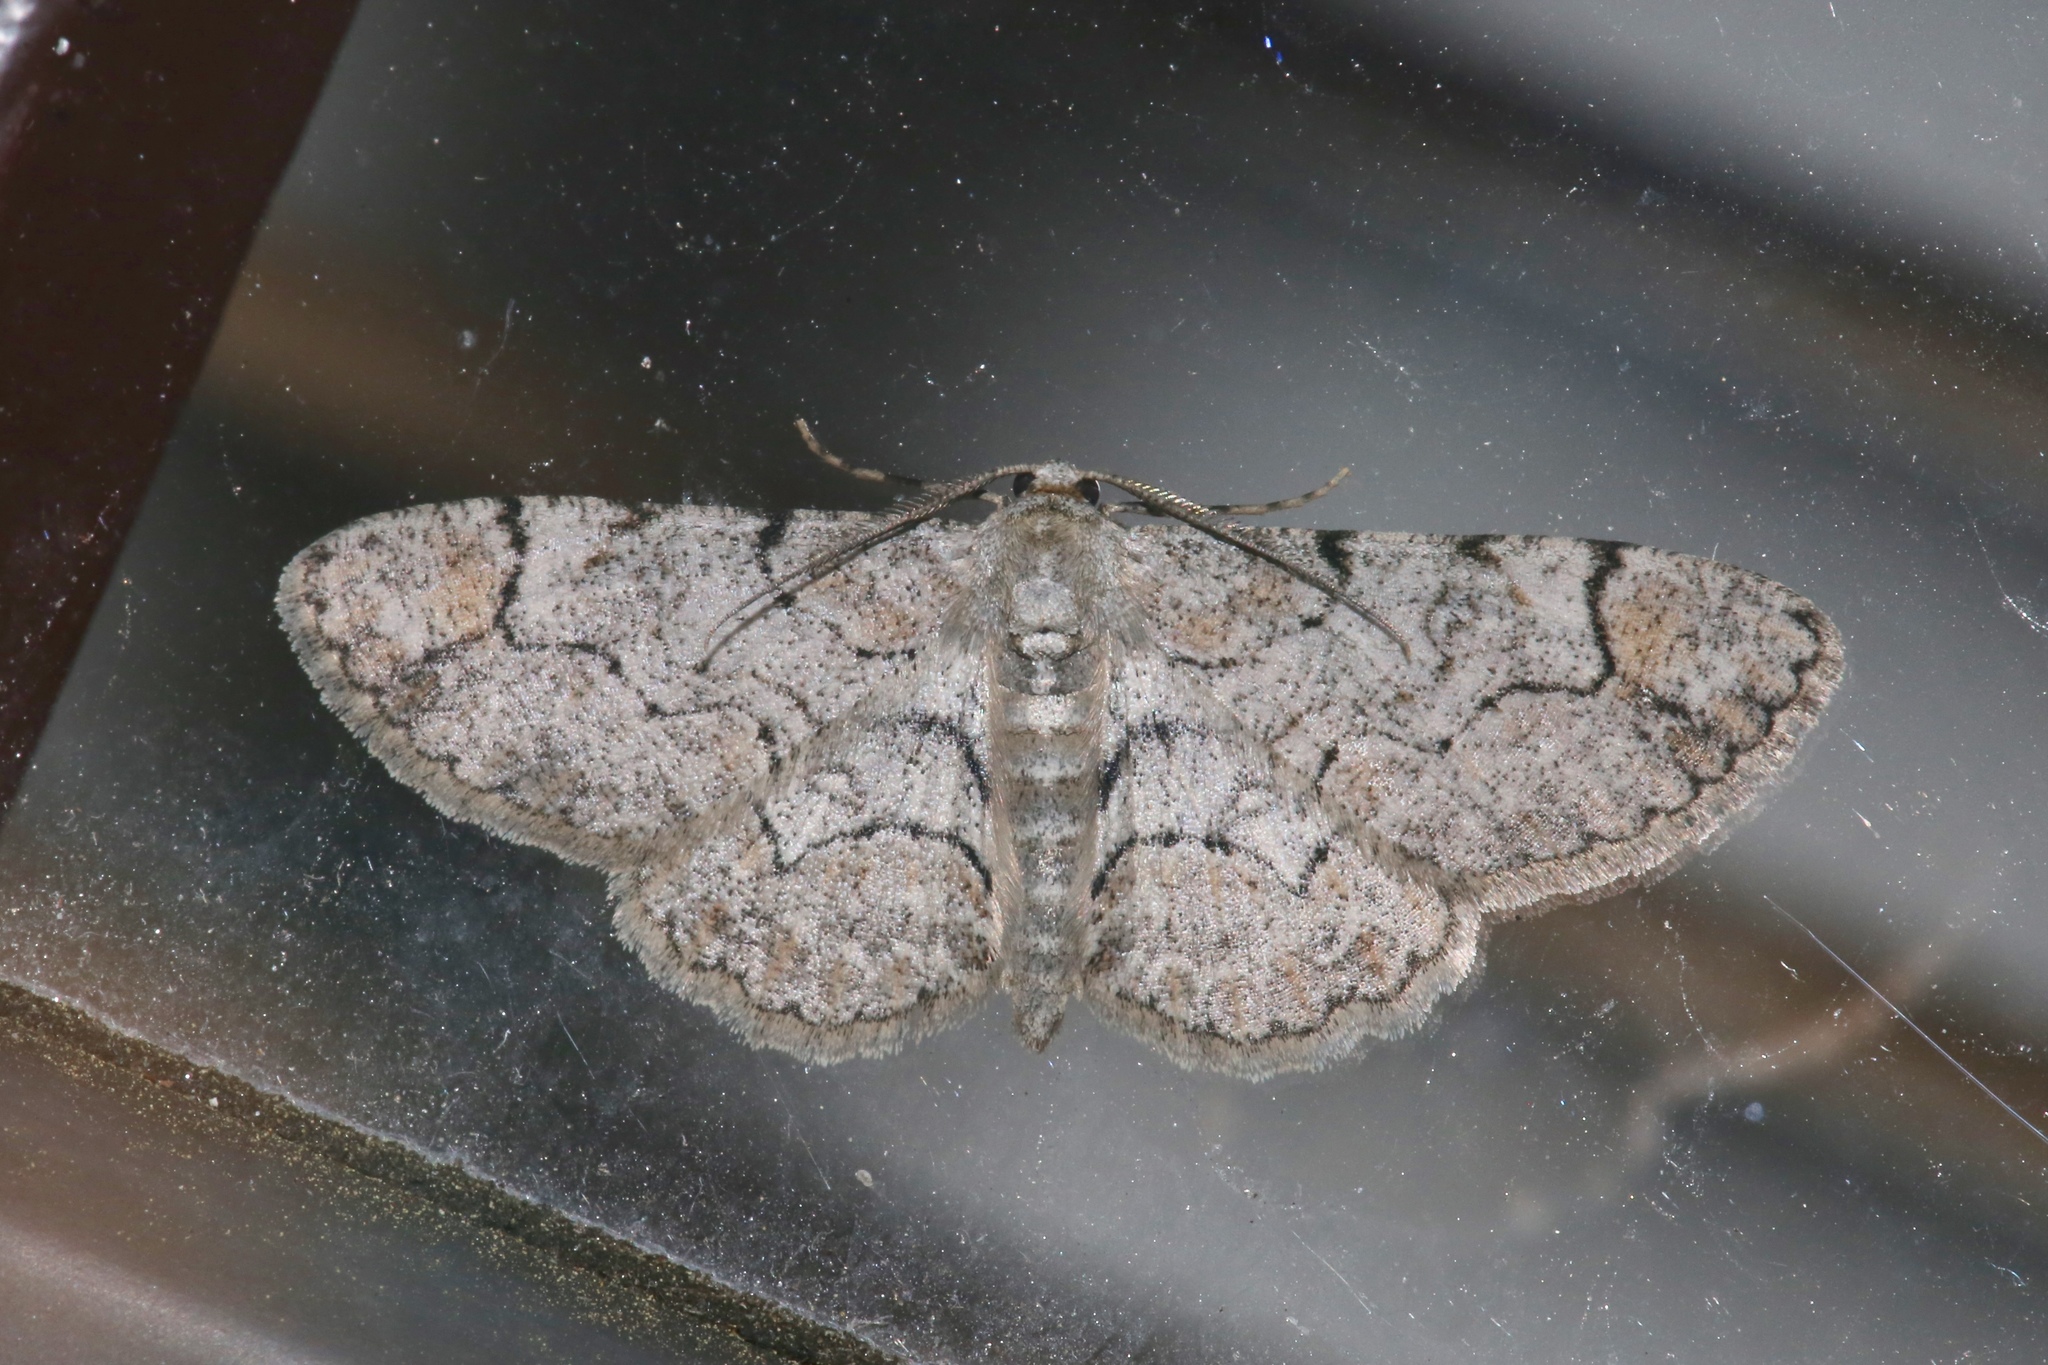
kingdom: Animalia
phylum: Arthropoda
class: Insecta
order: Lepidoptera
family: Geometridae
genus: Iridopsis
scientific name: Iridopsis larvaria
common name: Bent-line gray
